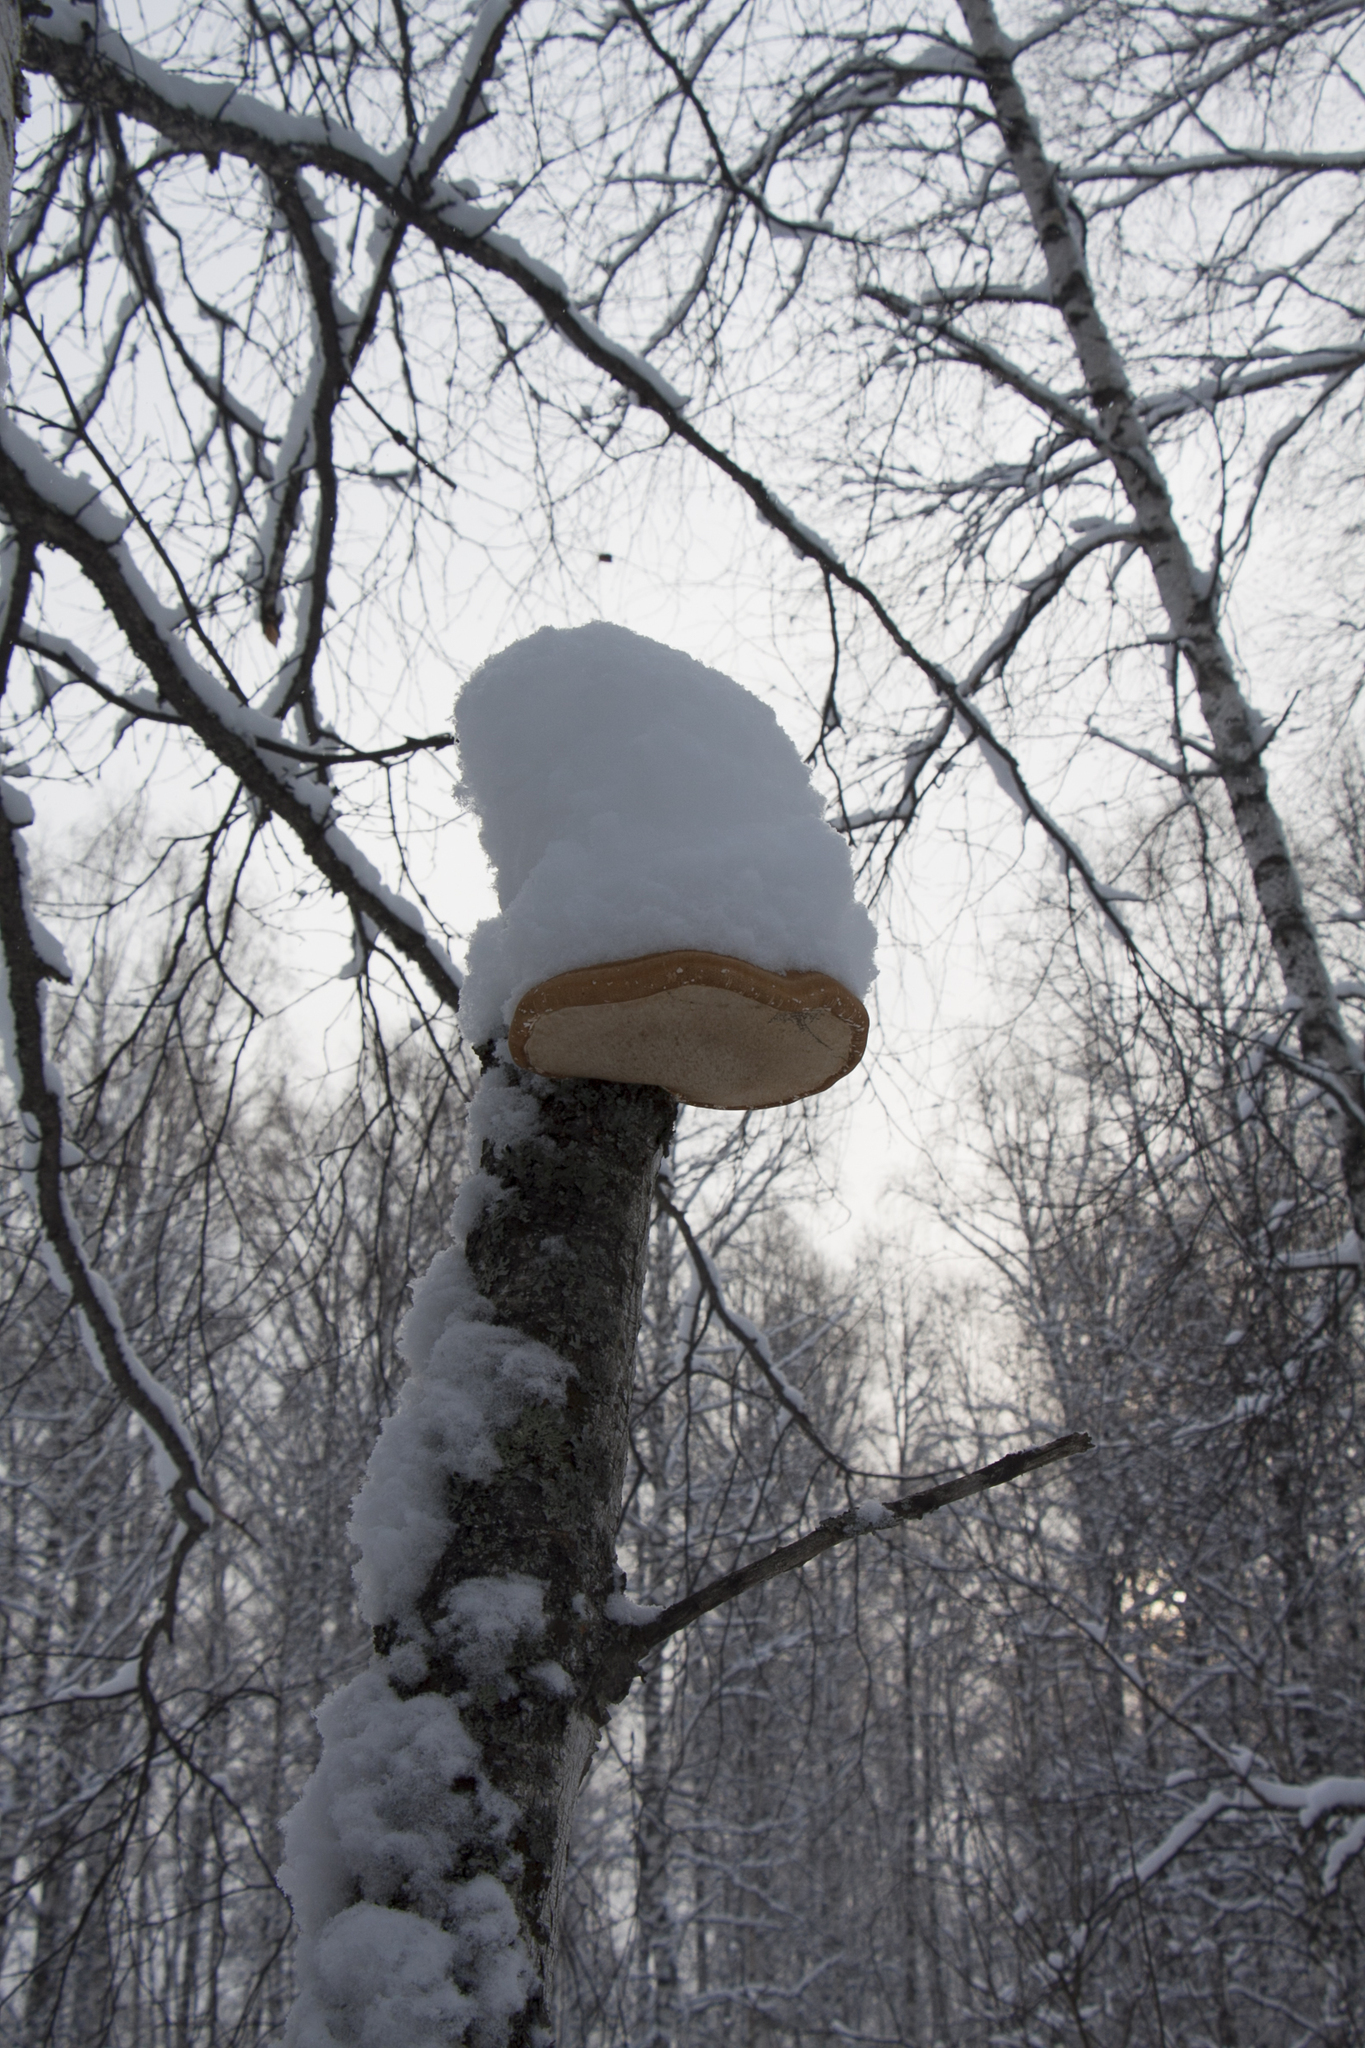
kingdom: Fungi
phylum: Basidiomycota
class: Agaricomycetes
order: Polyporales
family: Fomitopsidaceae
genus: Fomitopsis
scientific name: Fomitopsis betulina
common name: Birch polypore
